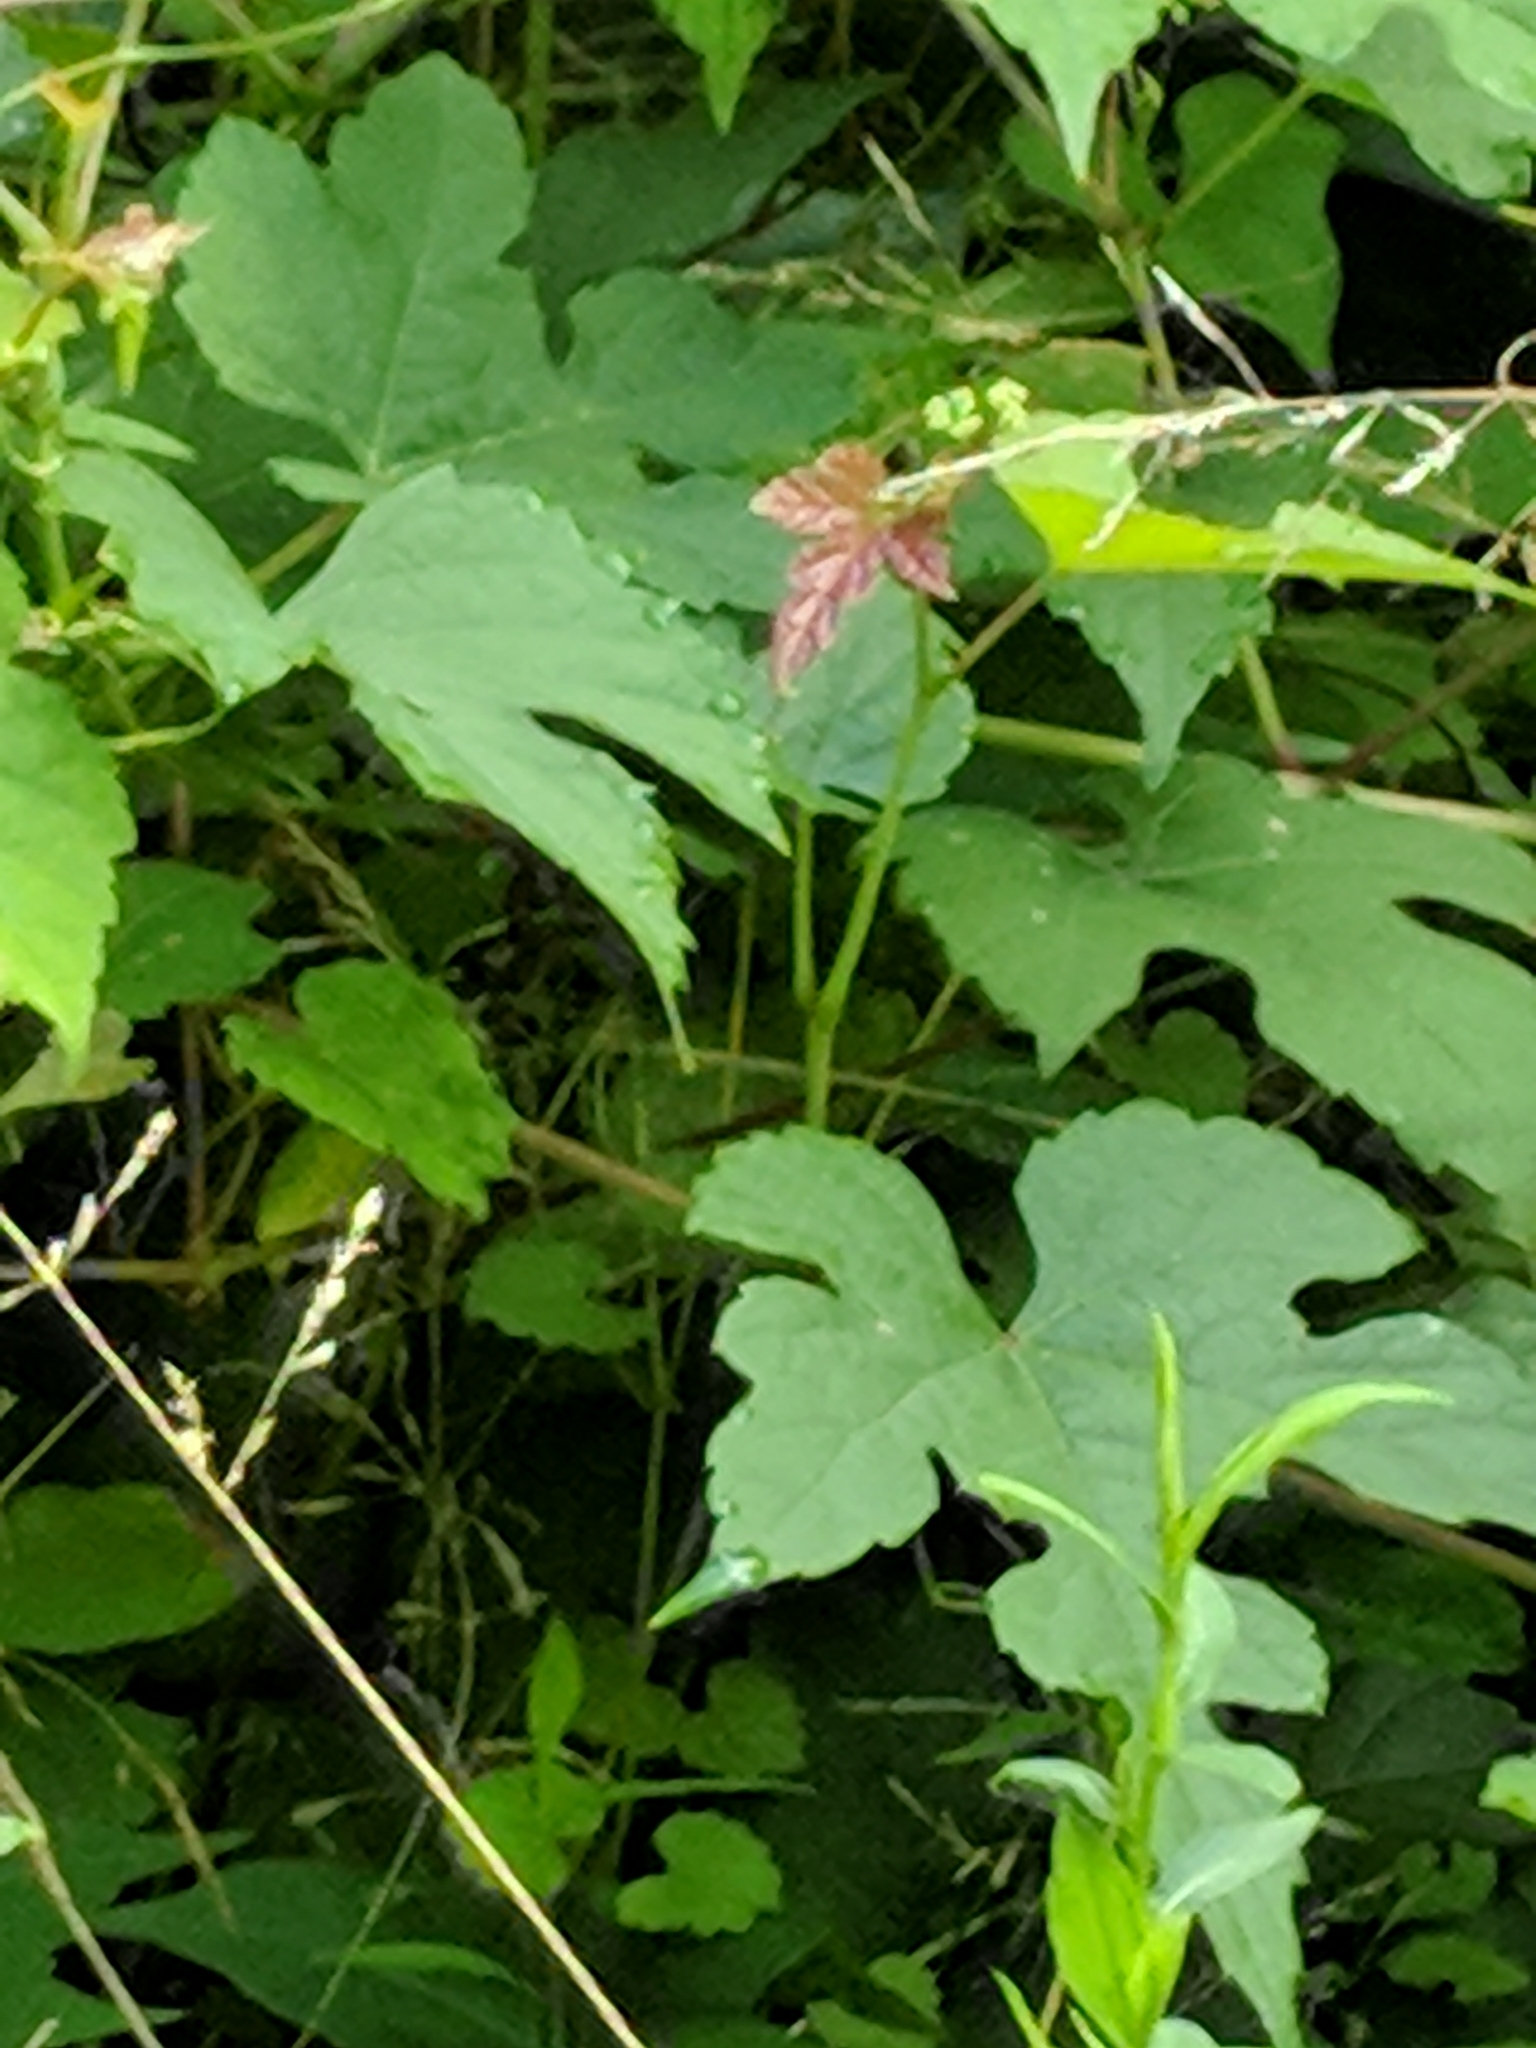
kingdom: Plantae
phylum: Tracheophyta
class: Magnoliopsida
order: Vitales
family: Vitaceae
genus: Ampelopsis
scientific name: Ampelopsis glandulosa
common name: Amur peppervine
